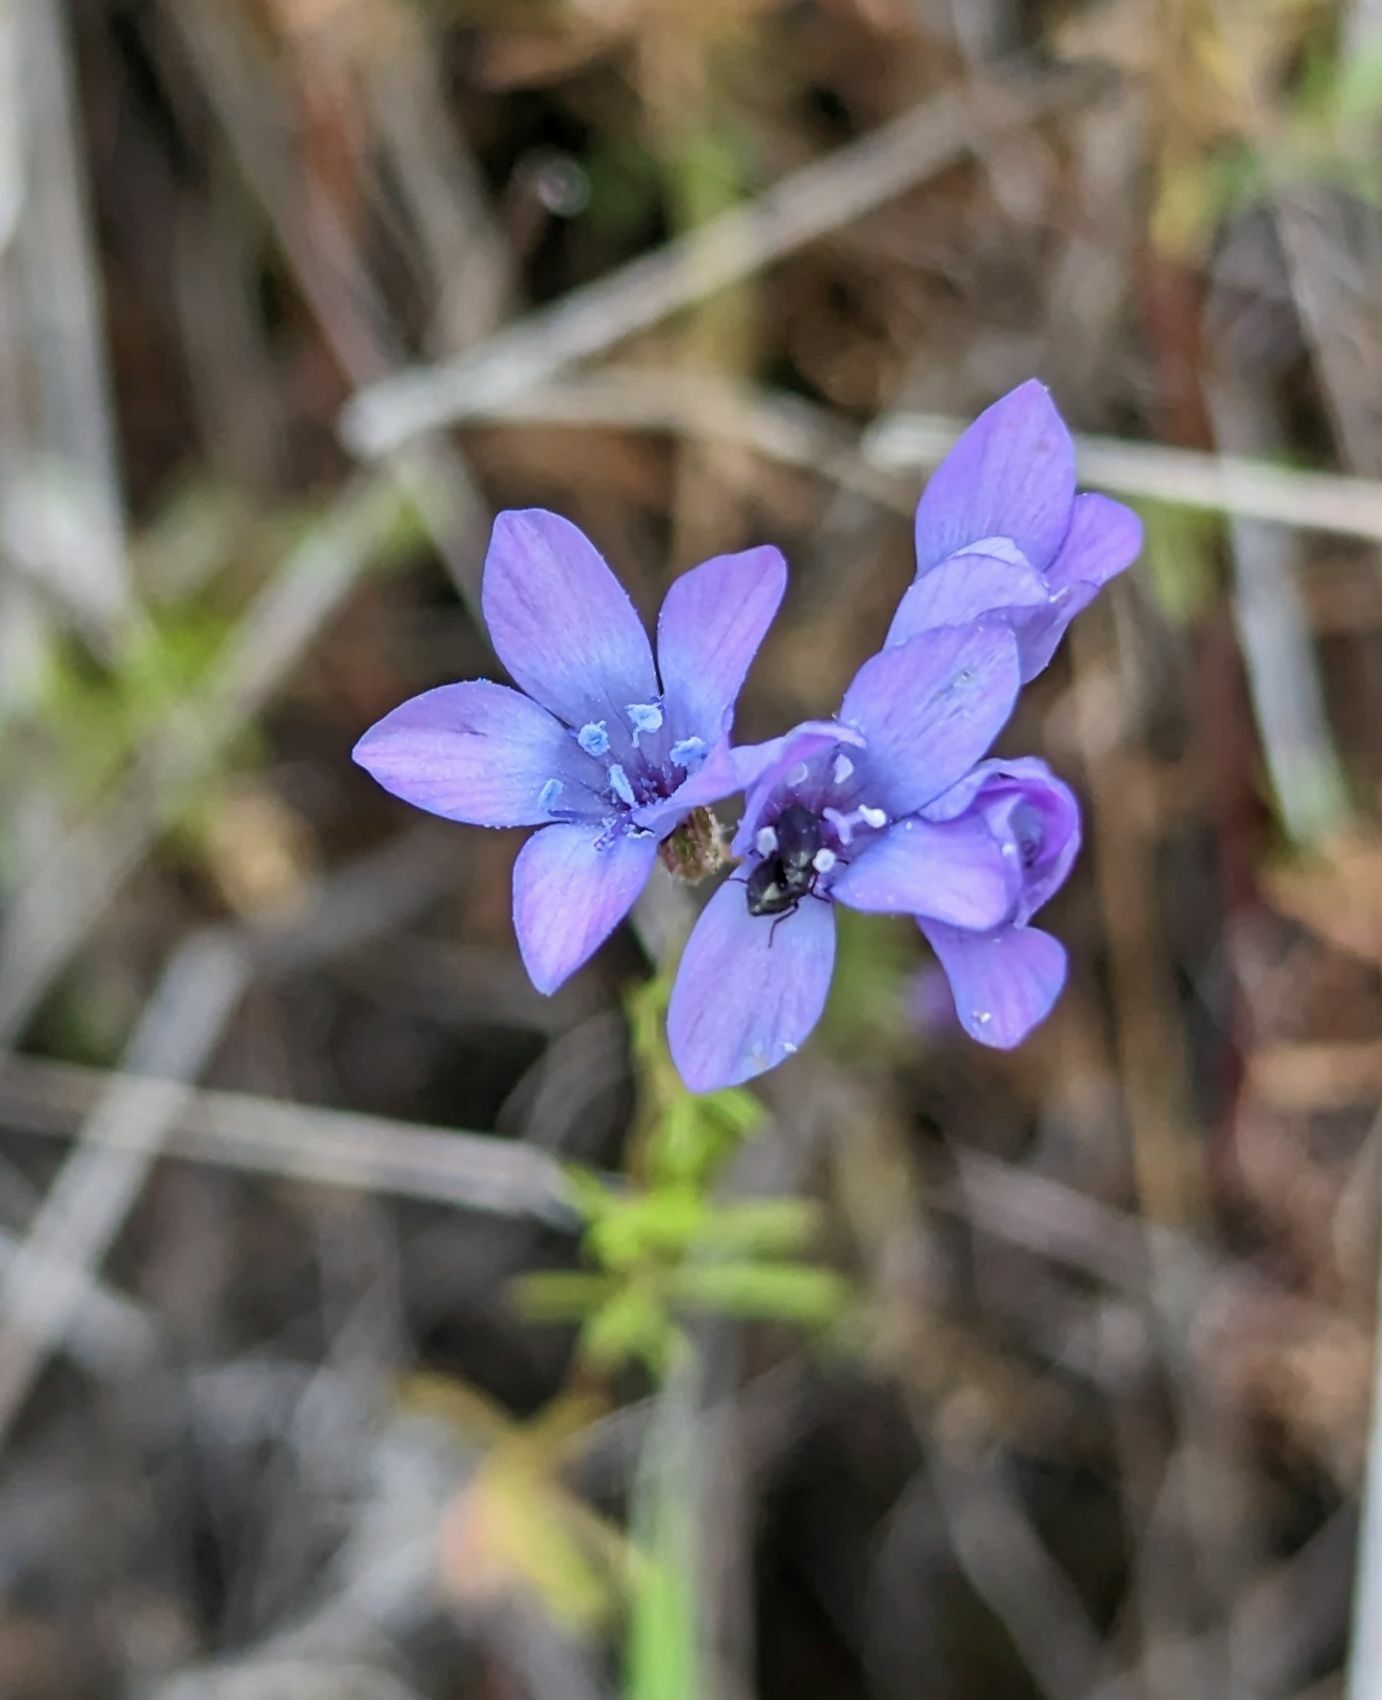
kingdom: Plantae
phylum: Tracheophyta
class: Magnoliopsida
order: Ericales
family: Polemoniaceae
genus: Gilia
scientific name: Gilia achilleifolia
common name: California gily-flower
